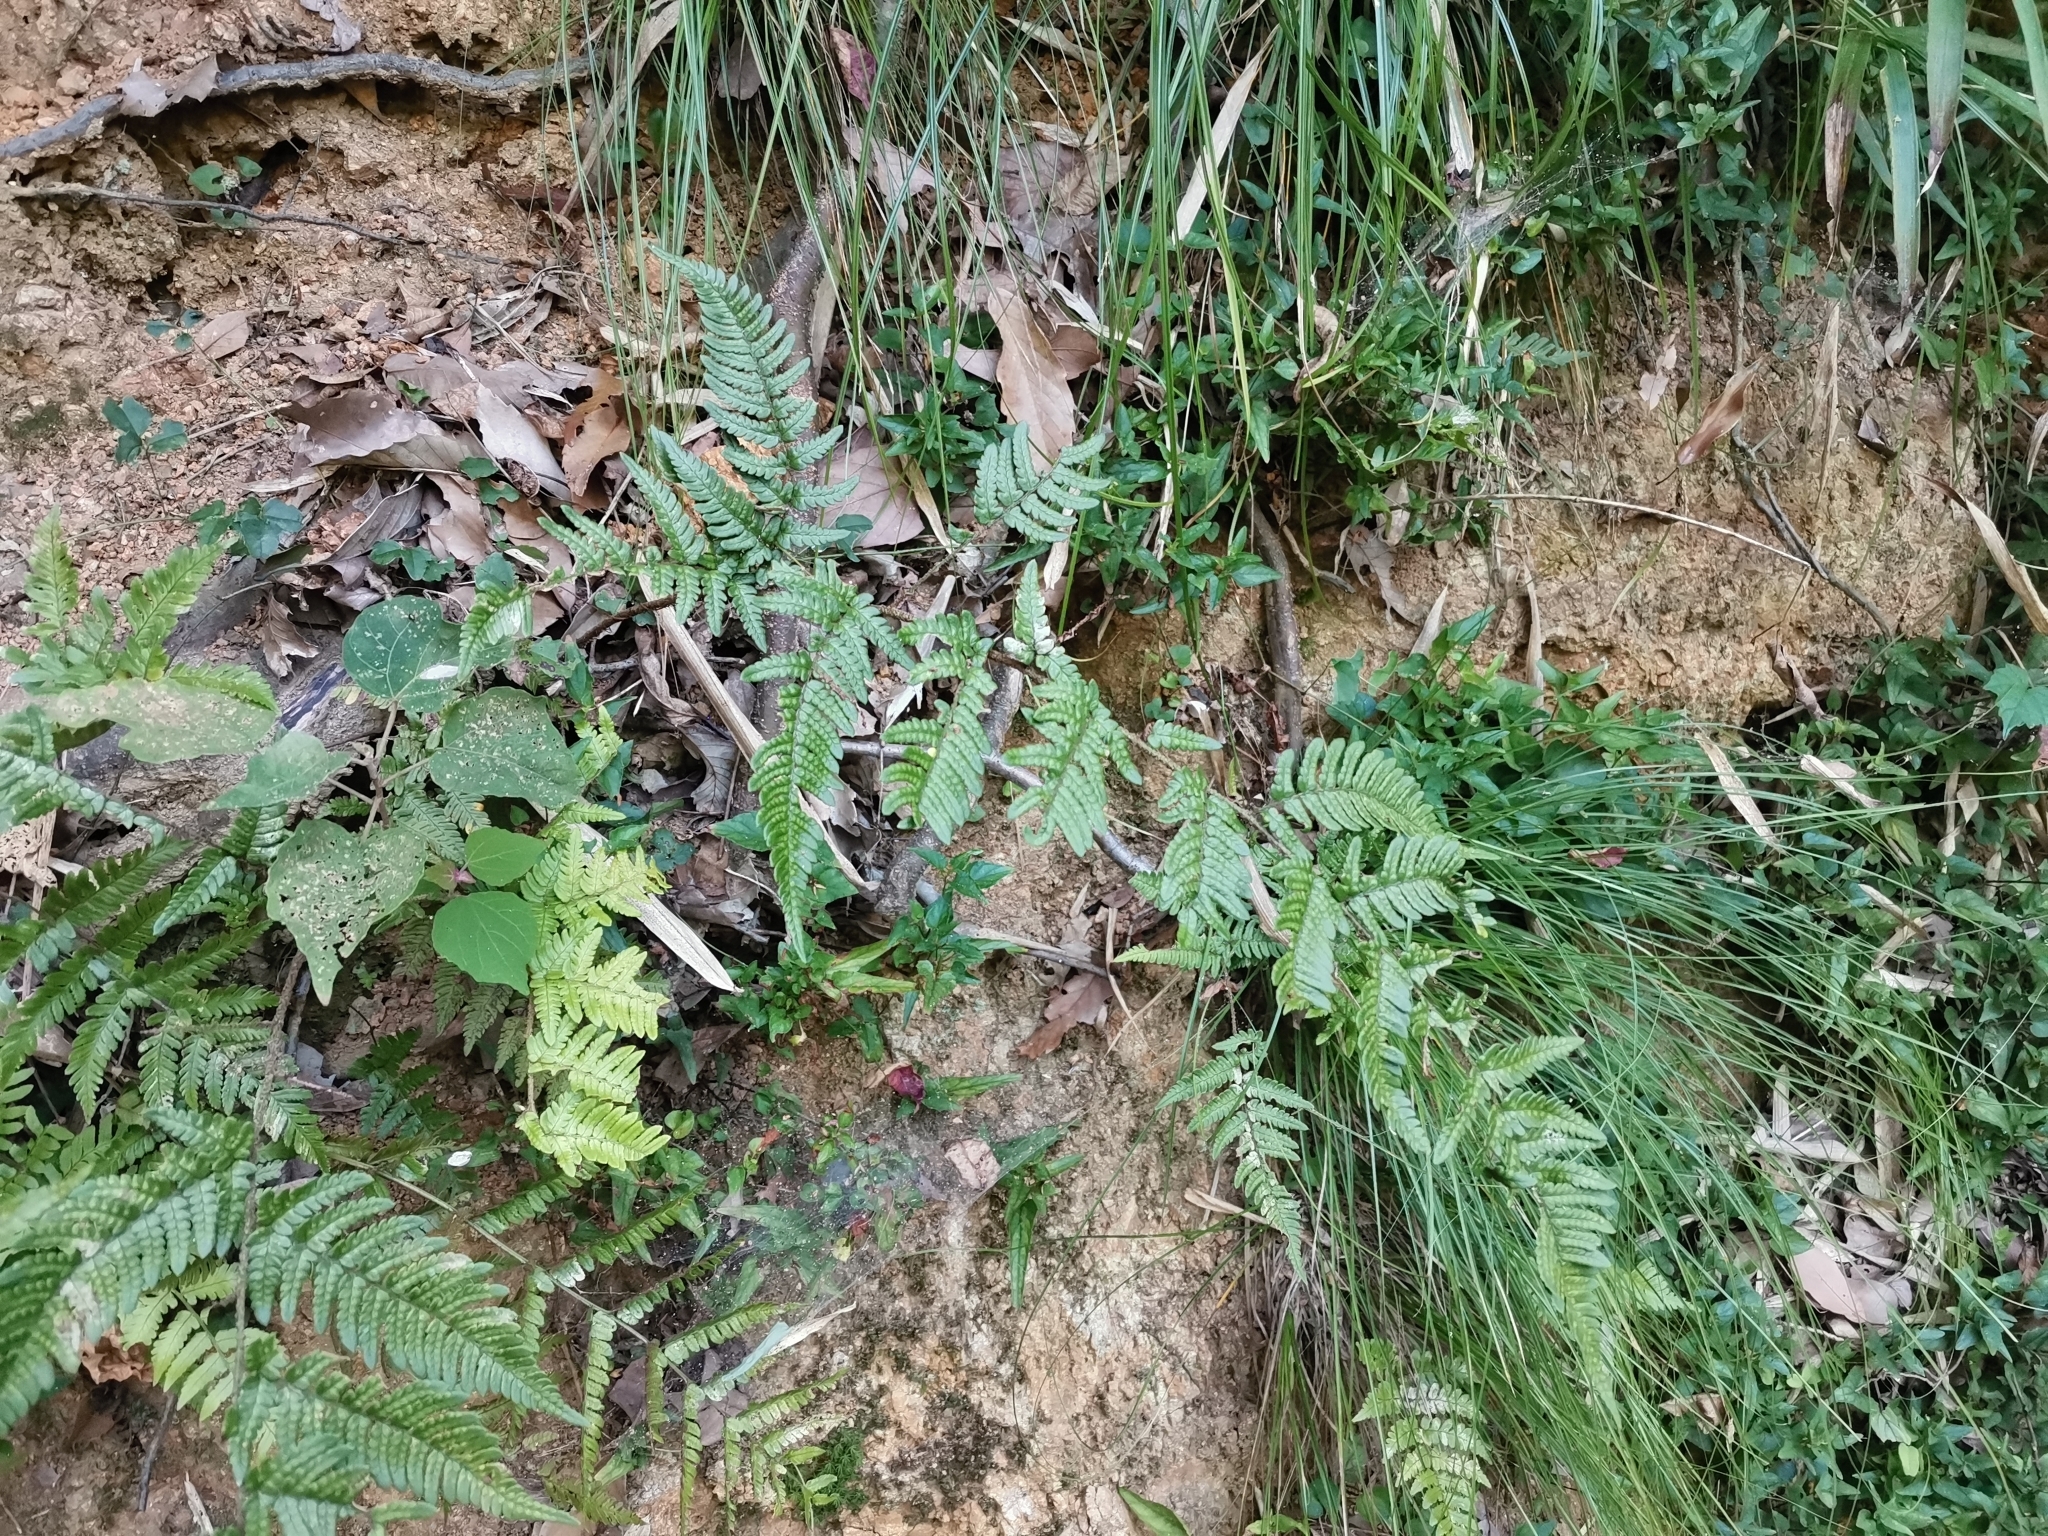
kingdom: Plantae
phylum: Tracheophyta
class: Polypodiopsida
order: Polypodiales
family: Dryopteridaceae
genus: Dryopteris
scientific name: Dryopteris bissetiana
